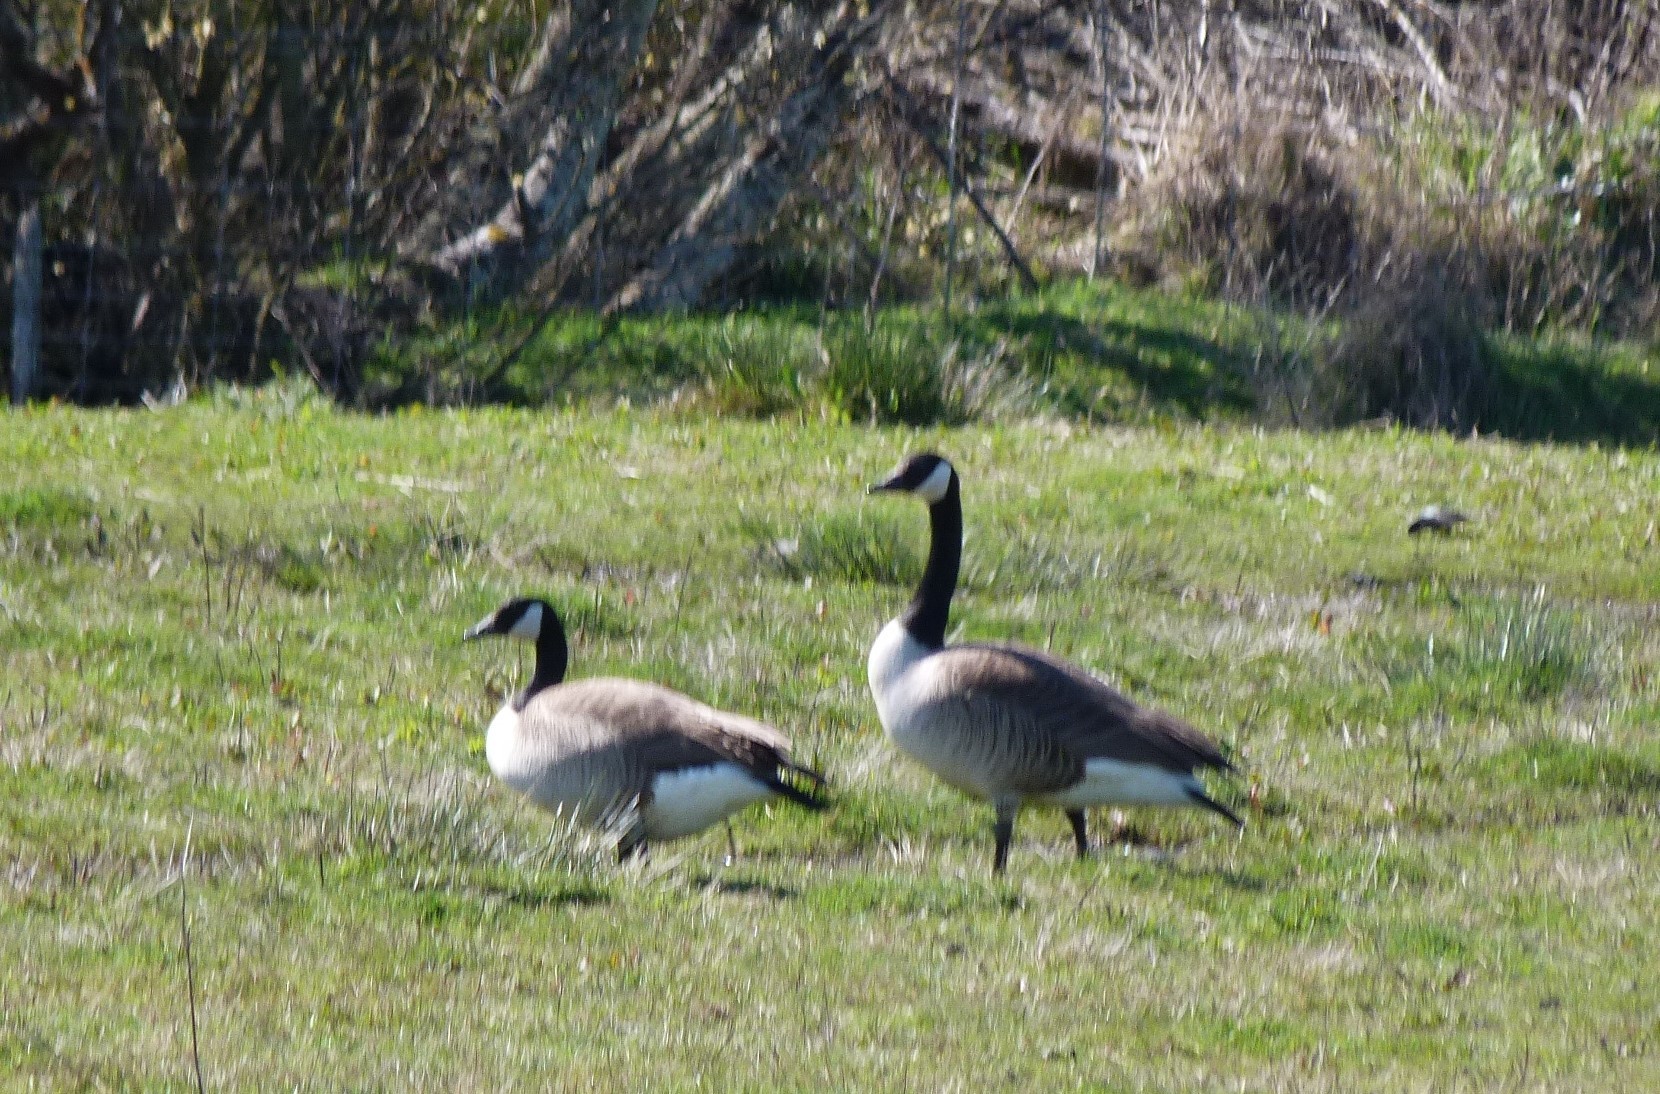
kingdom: Animalia
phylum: Chordata
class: Aves
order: Anseriformes
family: Anatidae
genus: Branta
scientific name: Branta canadensis
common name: Canada goose
